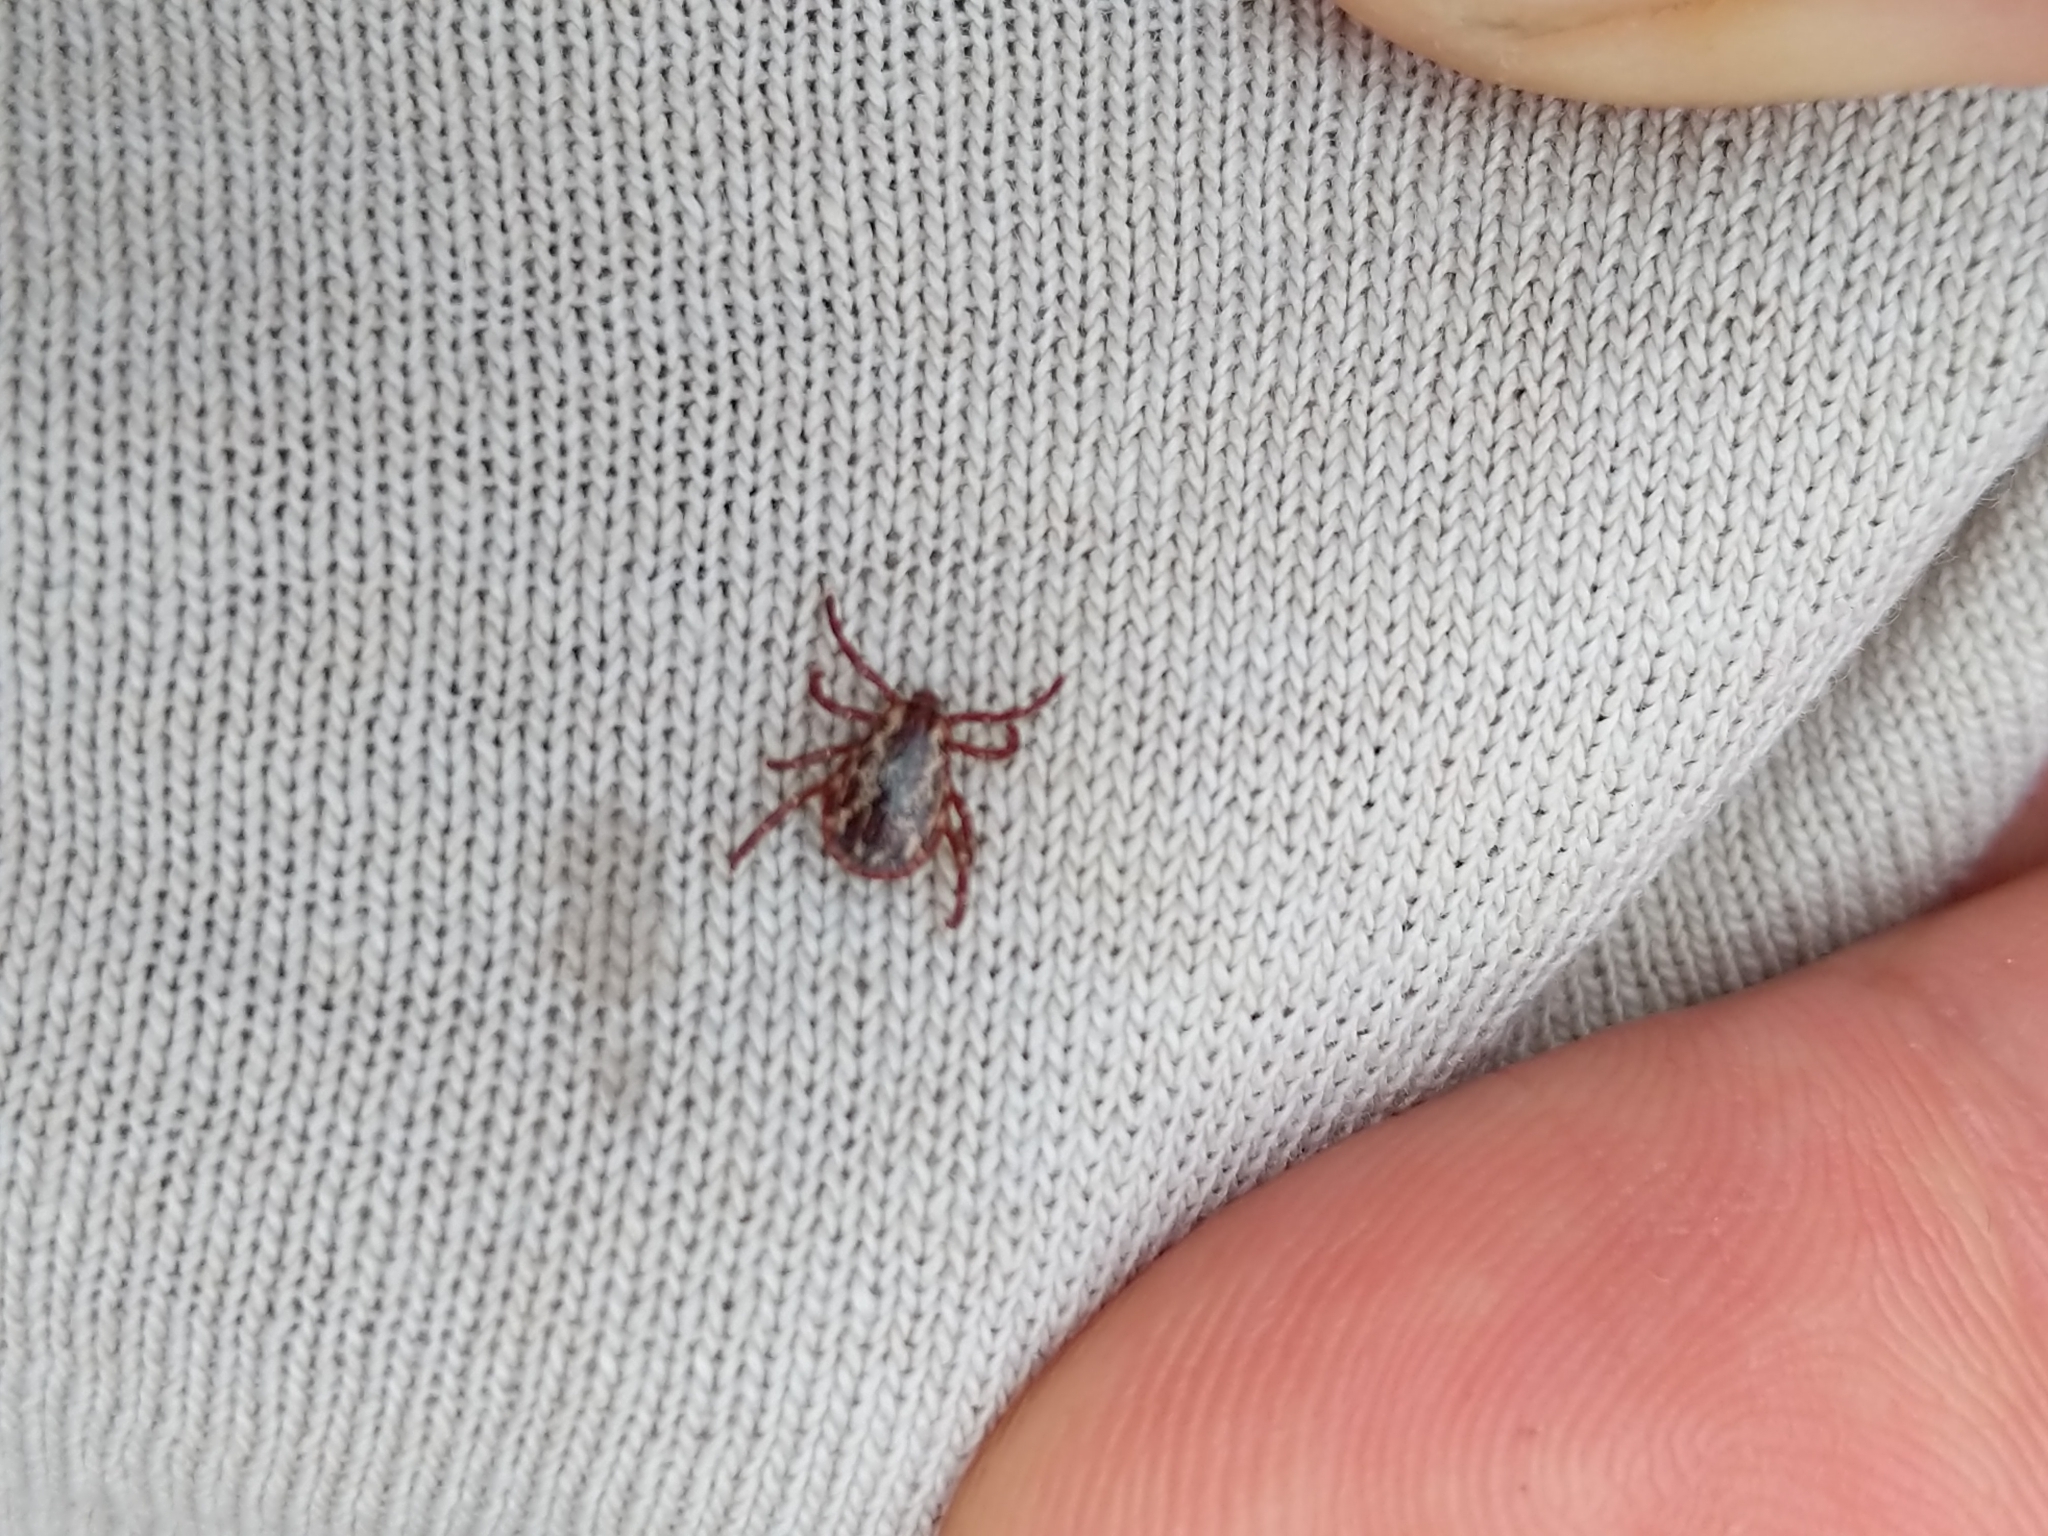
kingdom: Animalia
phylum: Arthropoda
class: Arachnida
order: Ixodida
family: Ixodidae
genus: Dermacentor
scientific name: Dermacentor variabilis
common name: American dog tick
